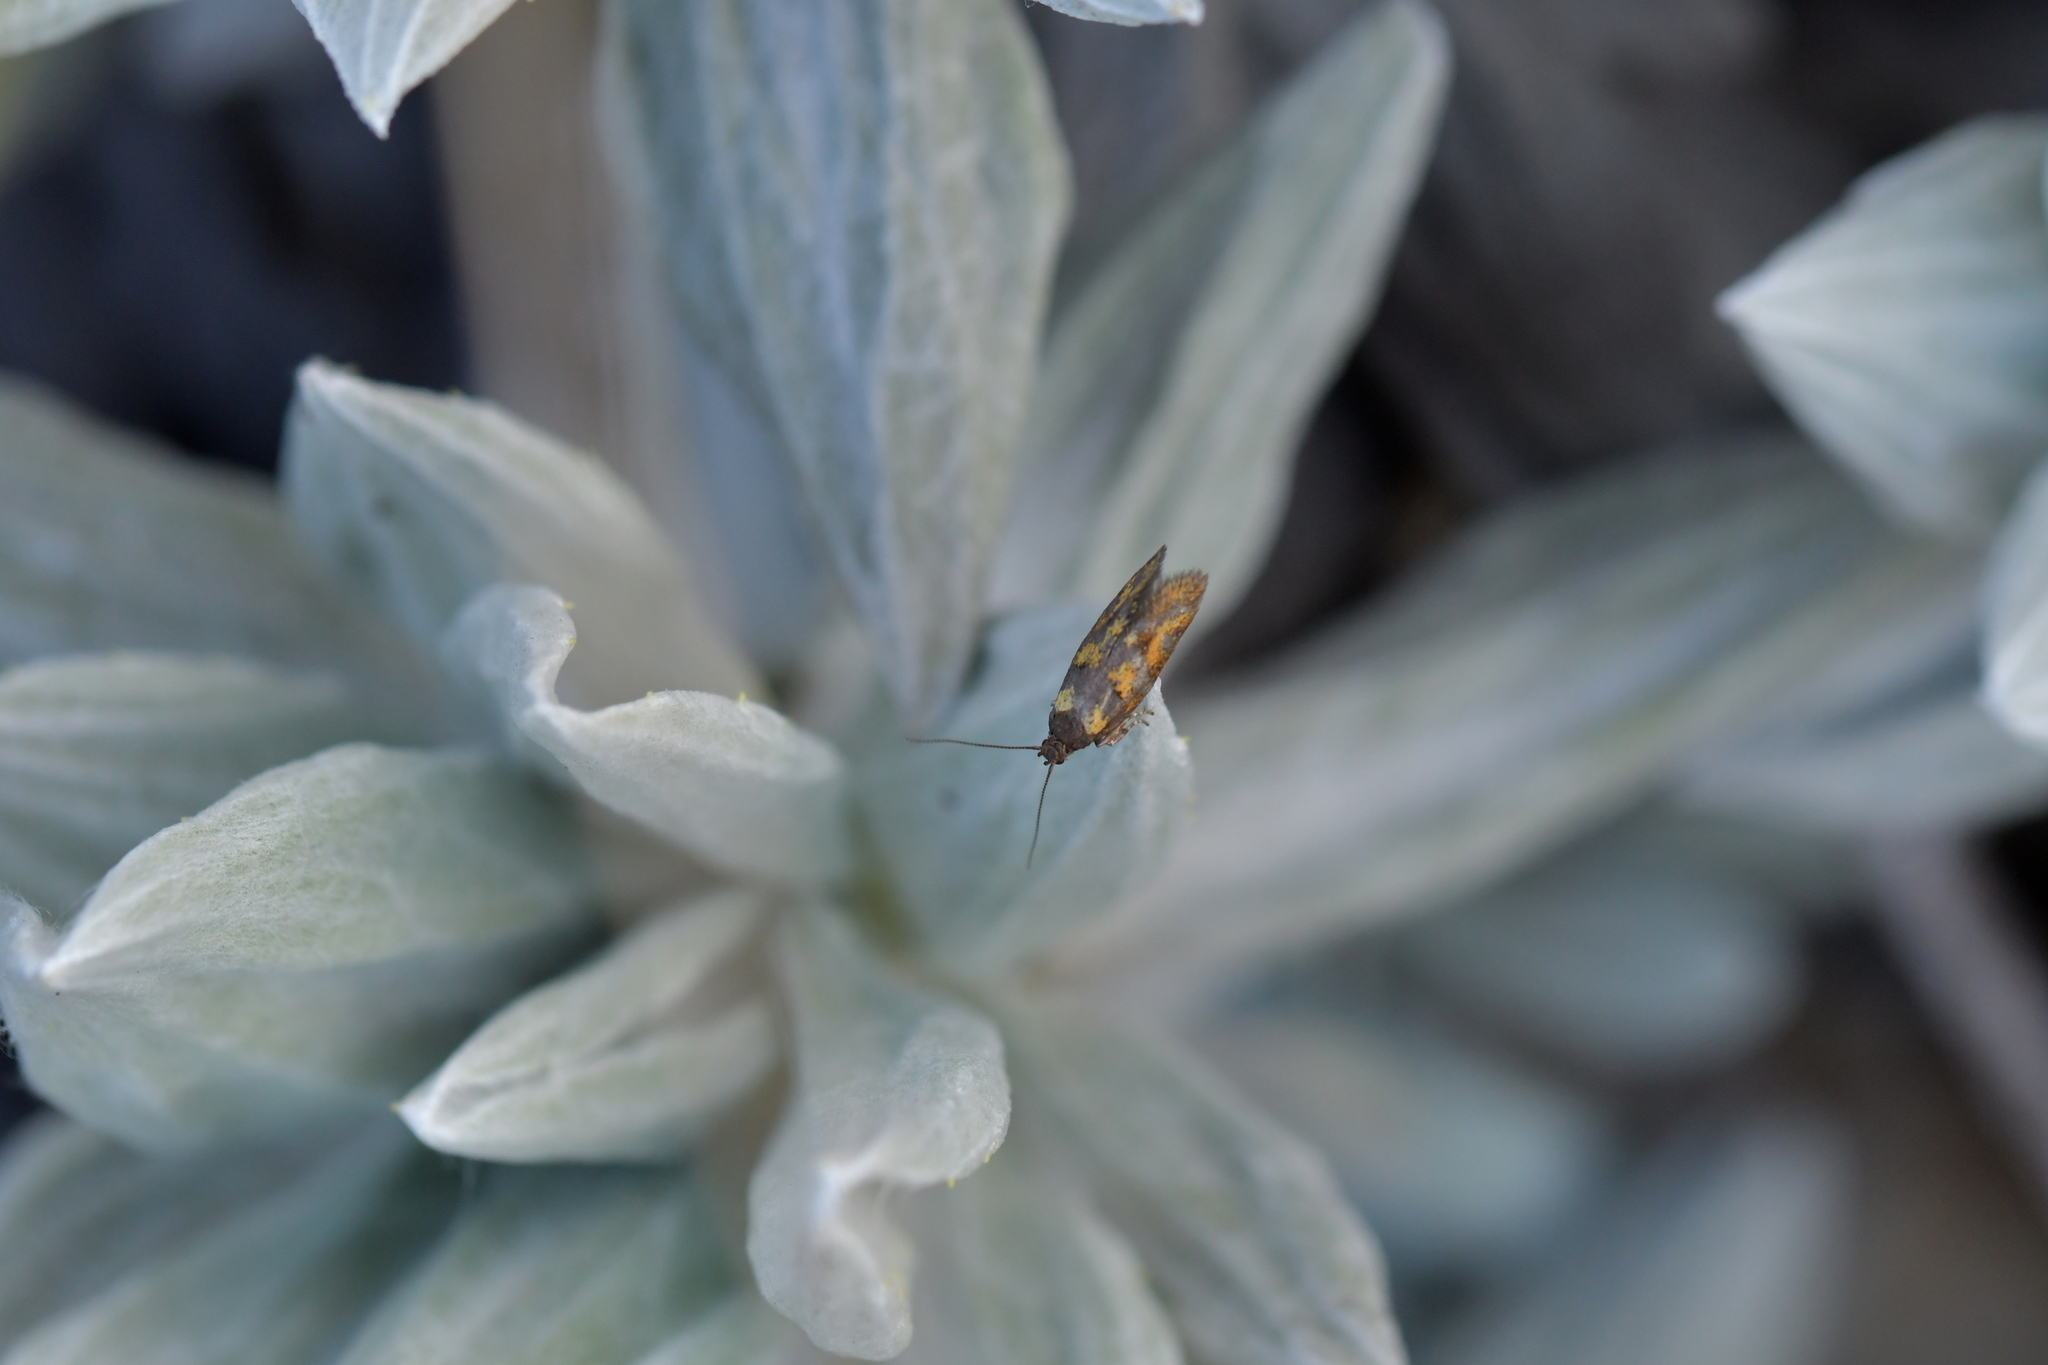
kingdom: Animalia
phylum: Arthropoda
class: Insecta
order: Lepidoptera
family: Oecophoridae
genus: Tingena
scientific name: Tingena compsogramma
